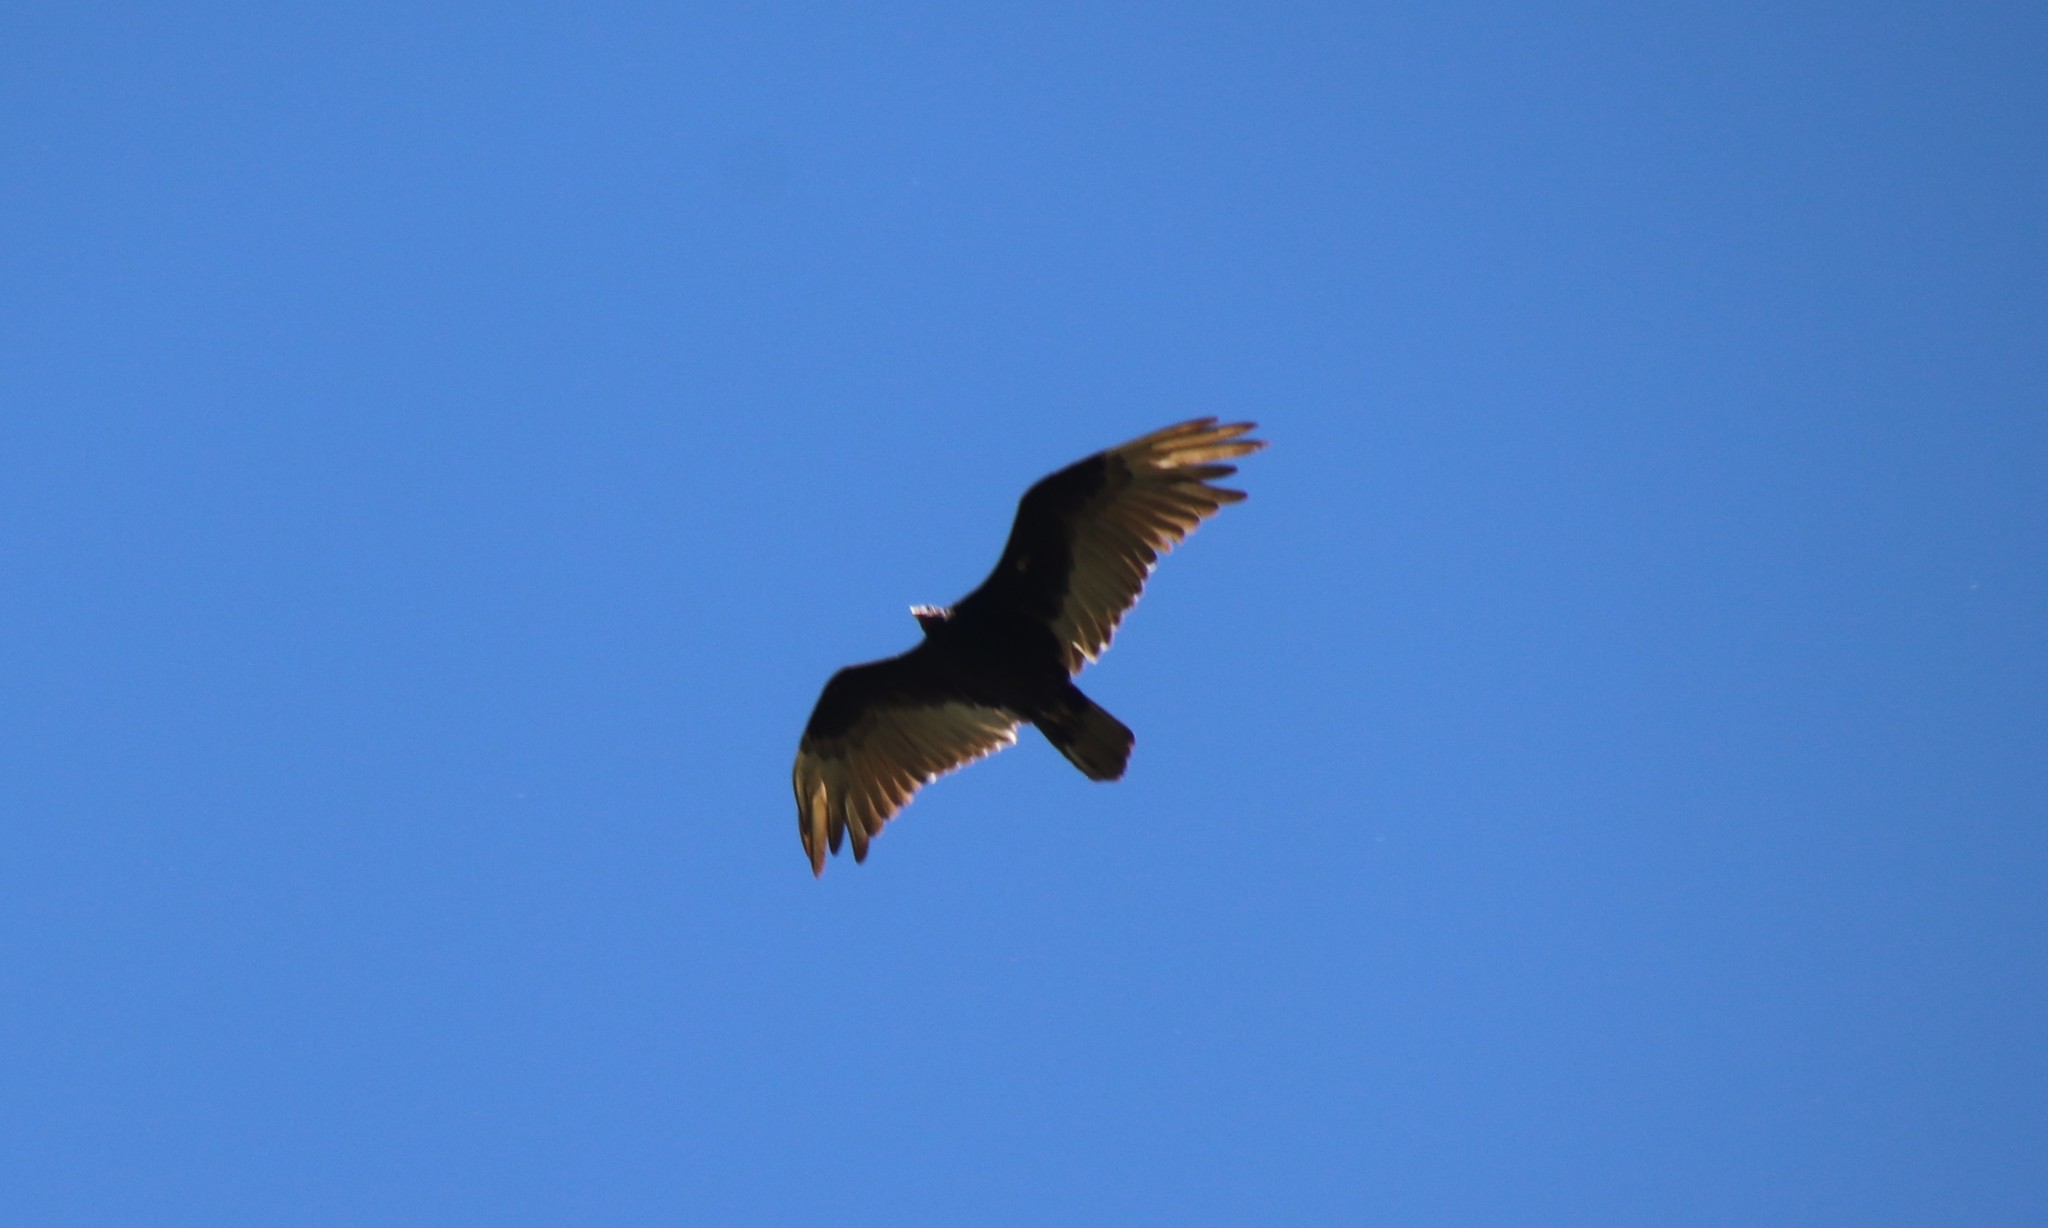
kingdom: Animalia
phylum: Chordata
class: Aves
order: Accipitriformes
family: Cathartidae
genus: Cathartes
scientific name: Cathartes aura
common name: Turkey vulture
